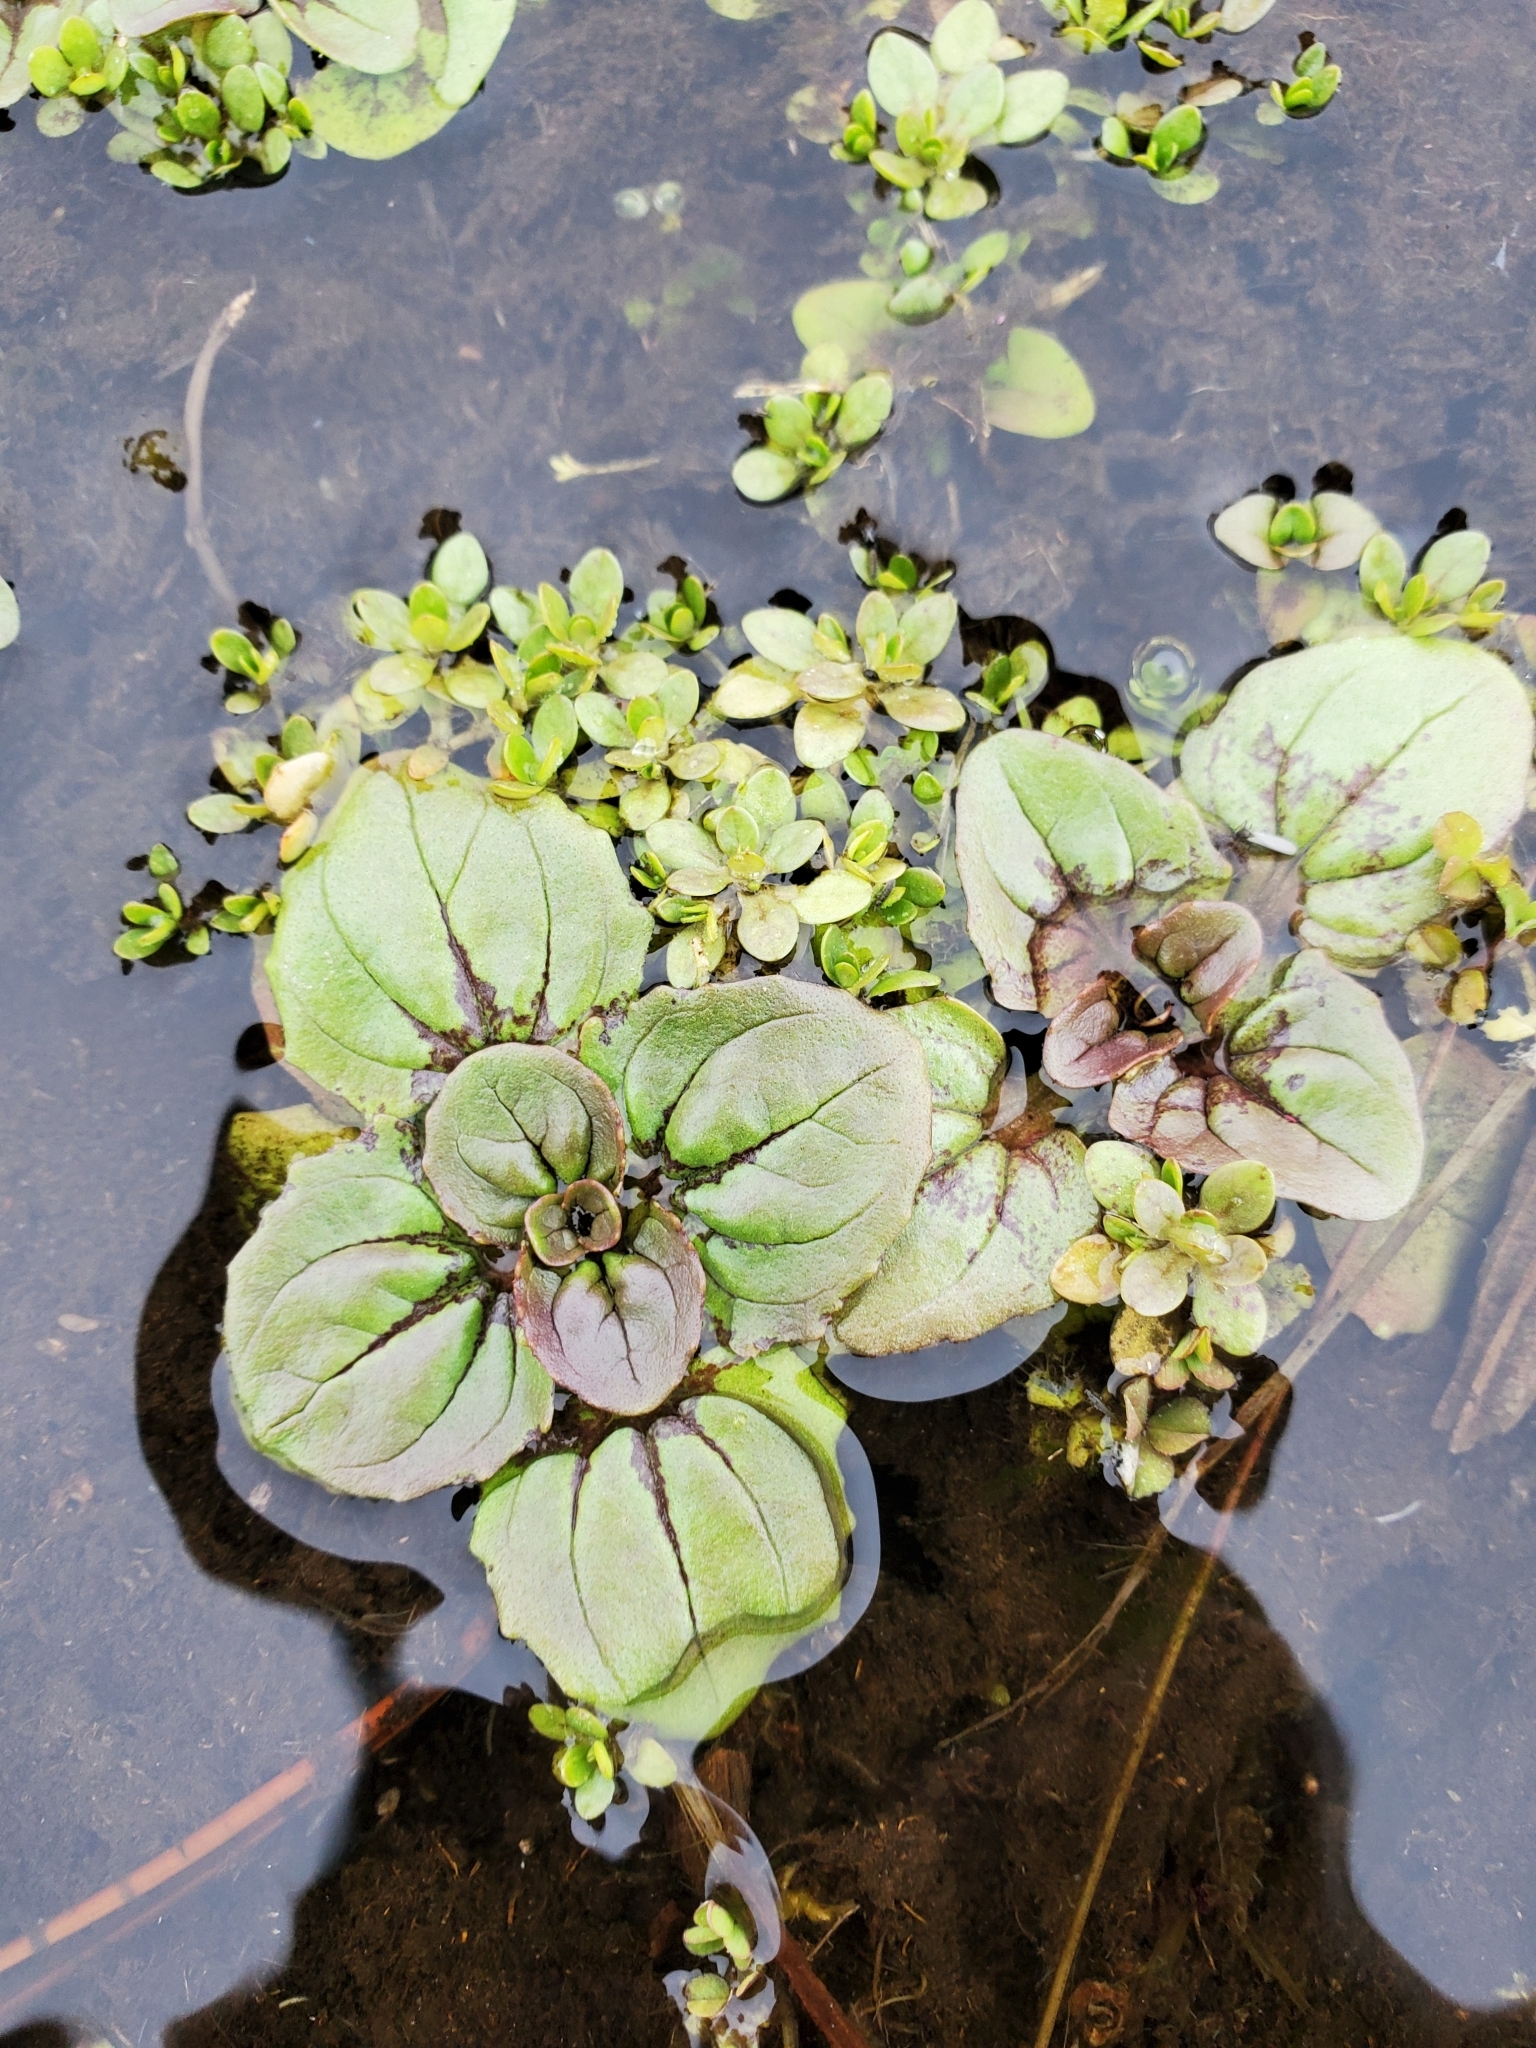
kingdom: Plantae
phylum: Tracheophyta
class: Magnoliopsida
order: Lamiales
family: Phrymaceae
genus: Erythranthe
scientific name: Erythranthe guttata
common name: Monkeyflower
